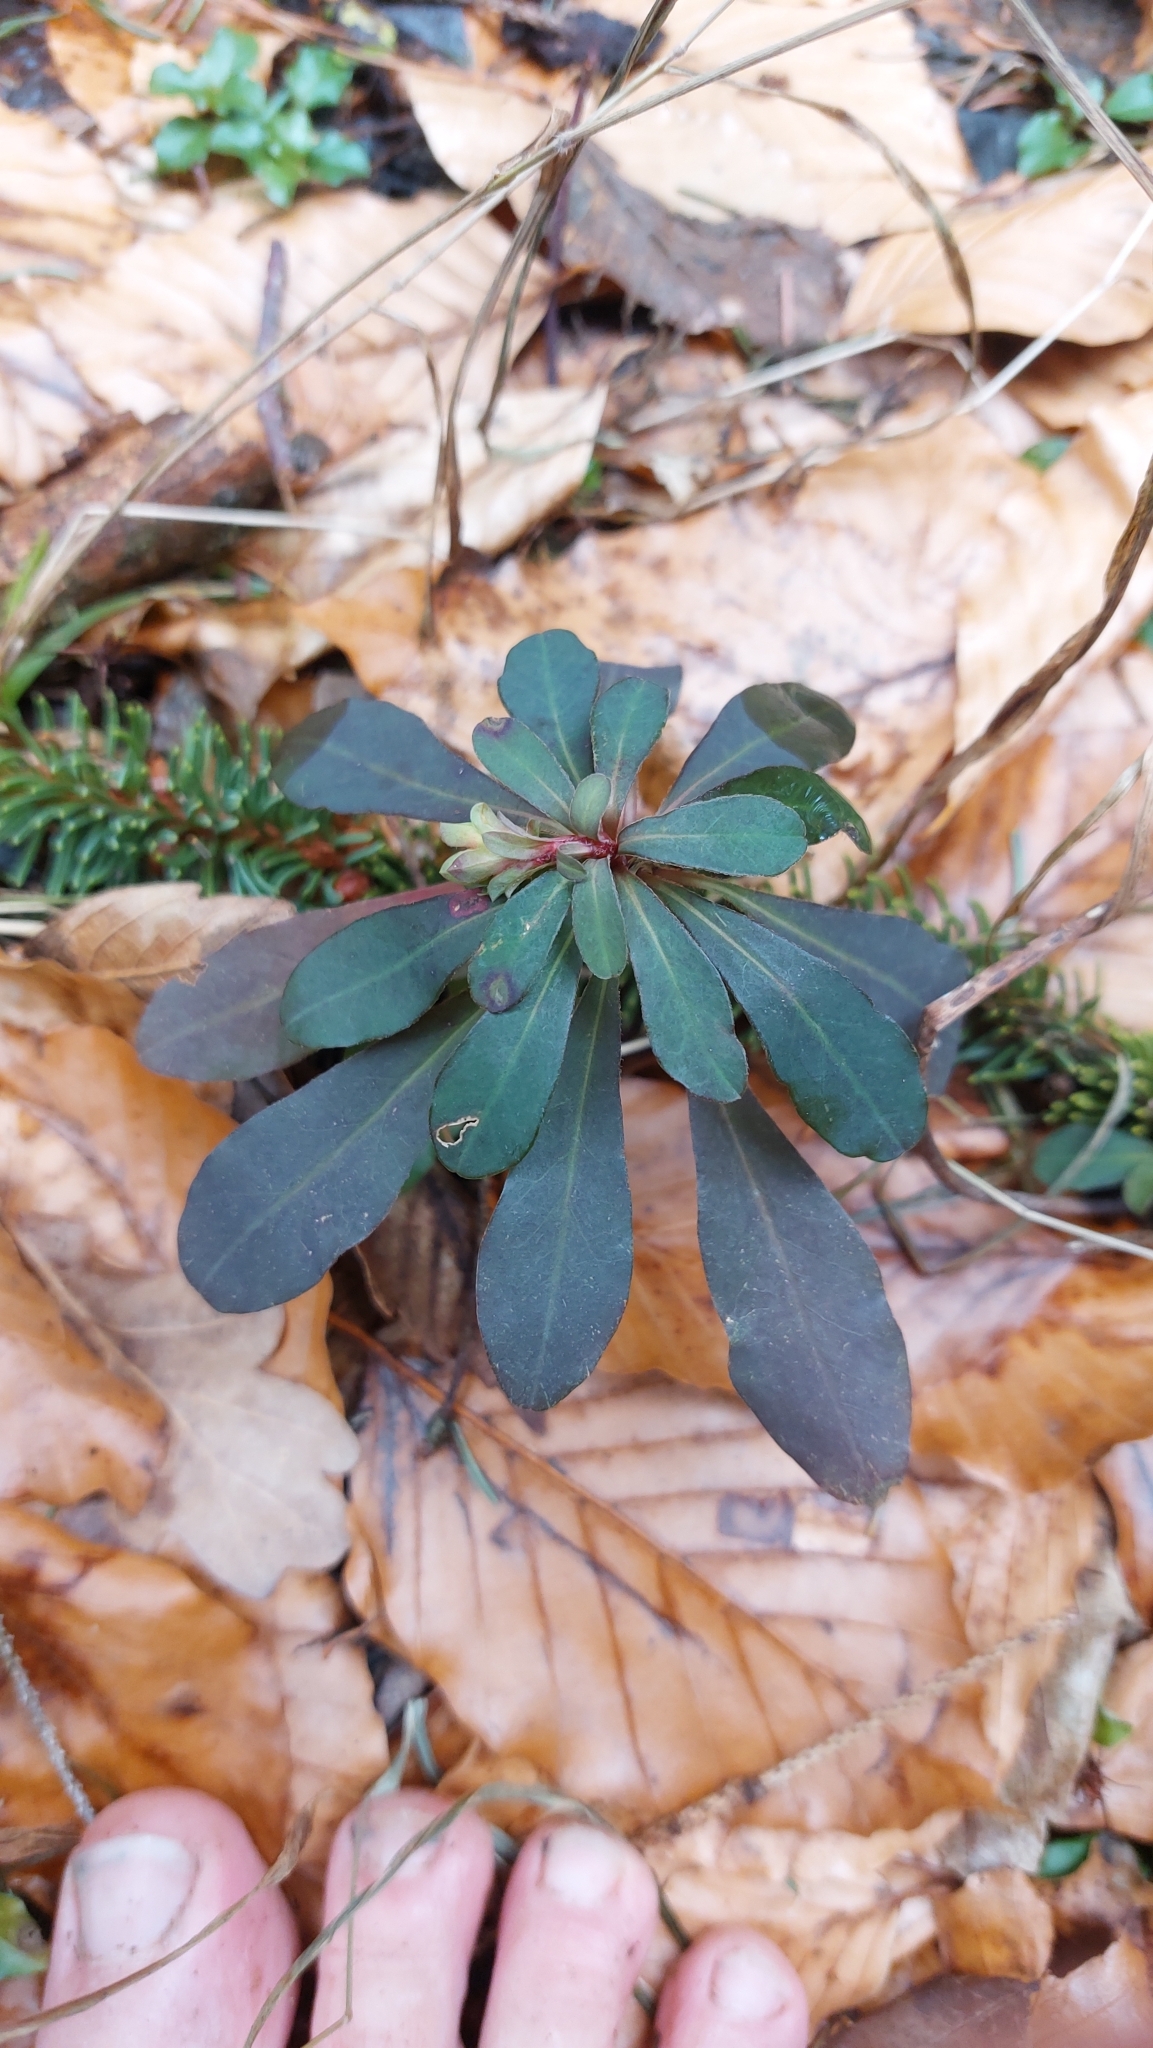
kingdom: Plantae
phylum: Tracheophyta
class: Magnoliopsida
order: Malpighiales
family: Euphorbiaceae
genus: Euphorbia
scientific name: Euphorbia amygdaloides
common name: Wood spurge
